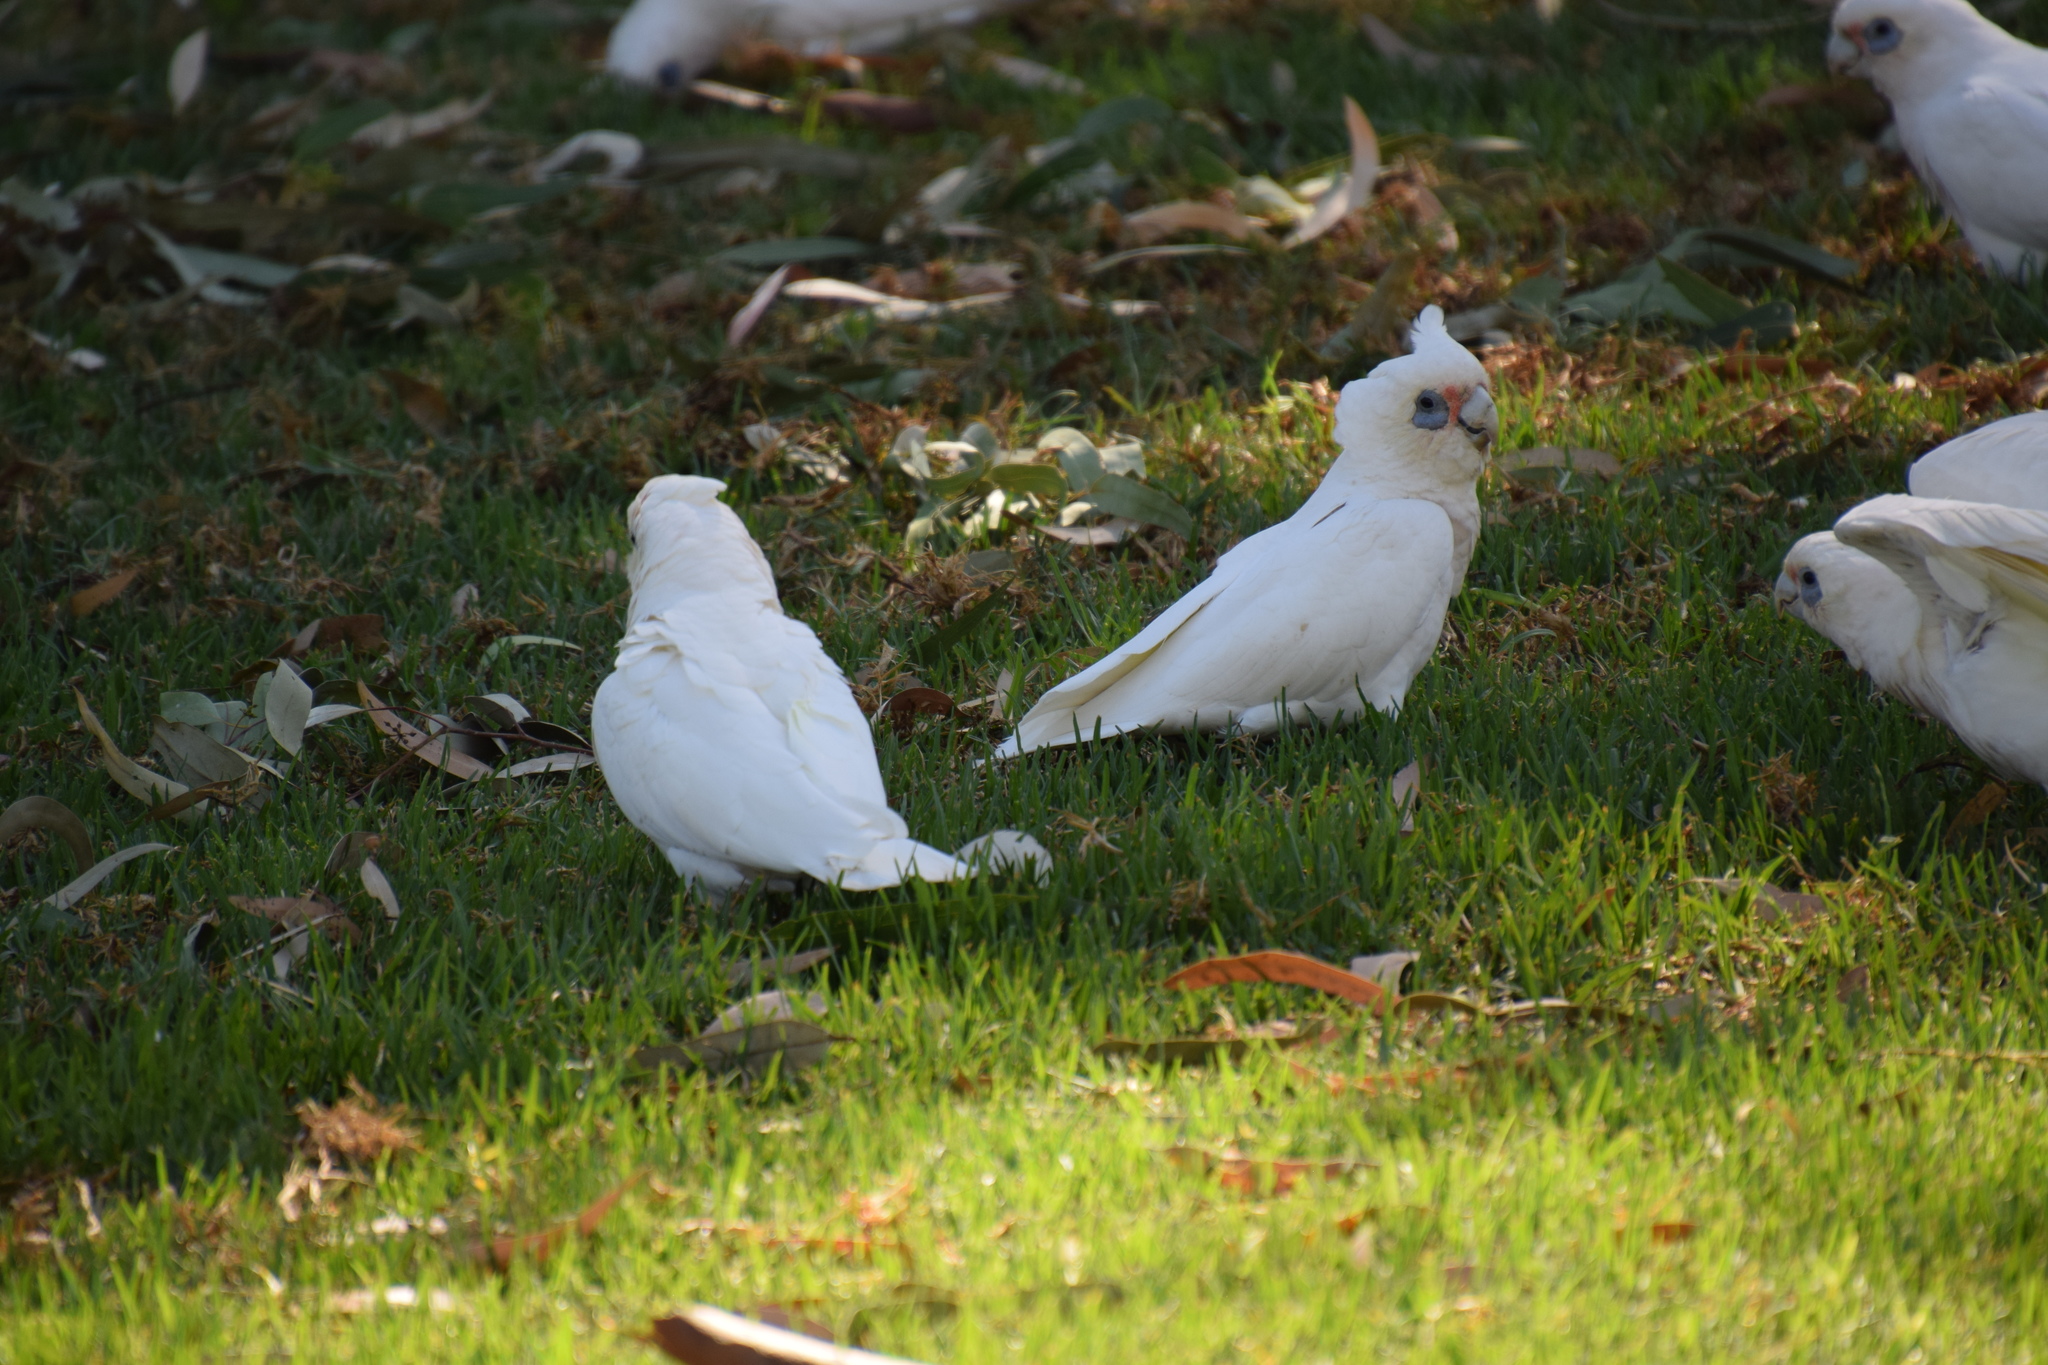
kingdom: Animalia
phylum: Chordata
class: Aves
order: Psittaciformes
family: Psittacidae
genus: Cacatua
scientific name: Cacatua sanguinea
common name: Little corella
